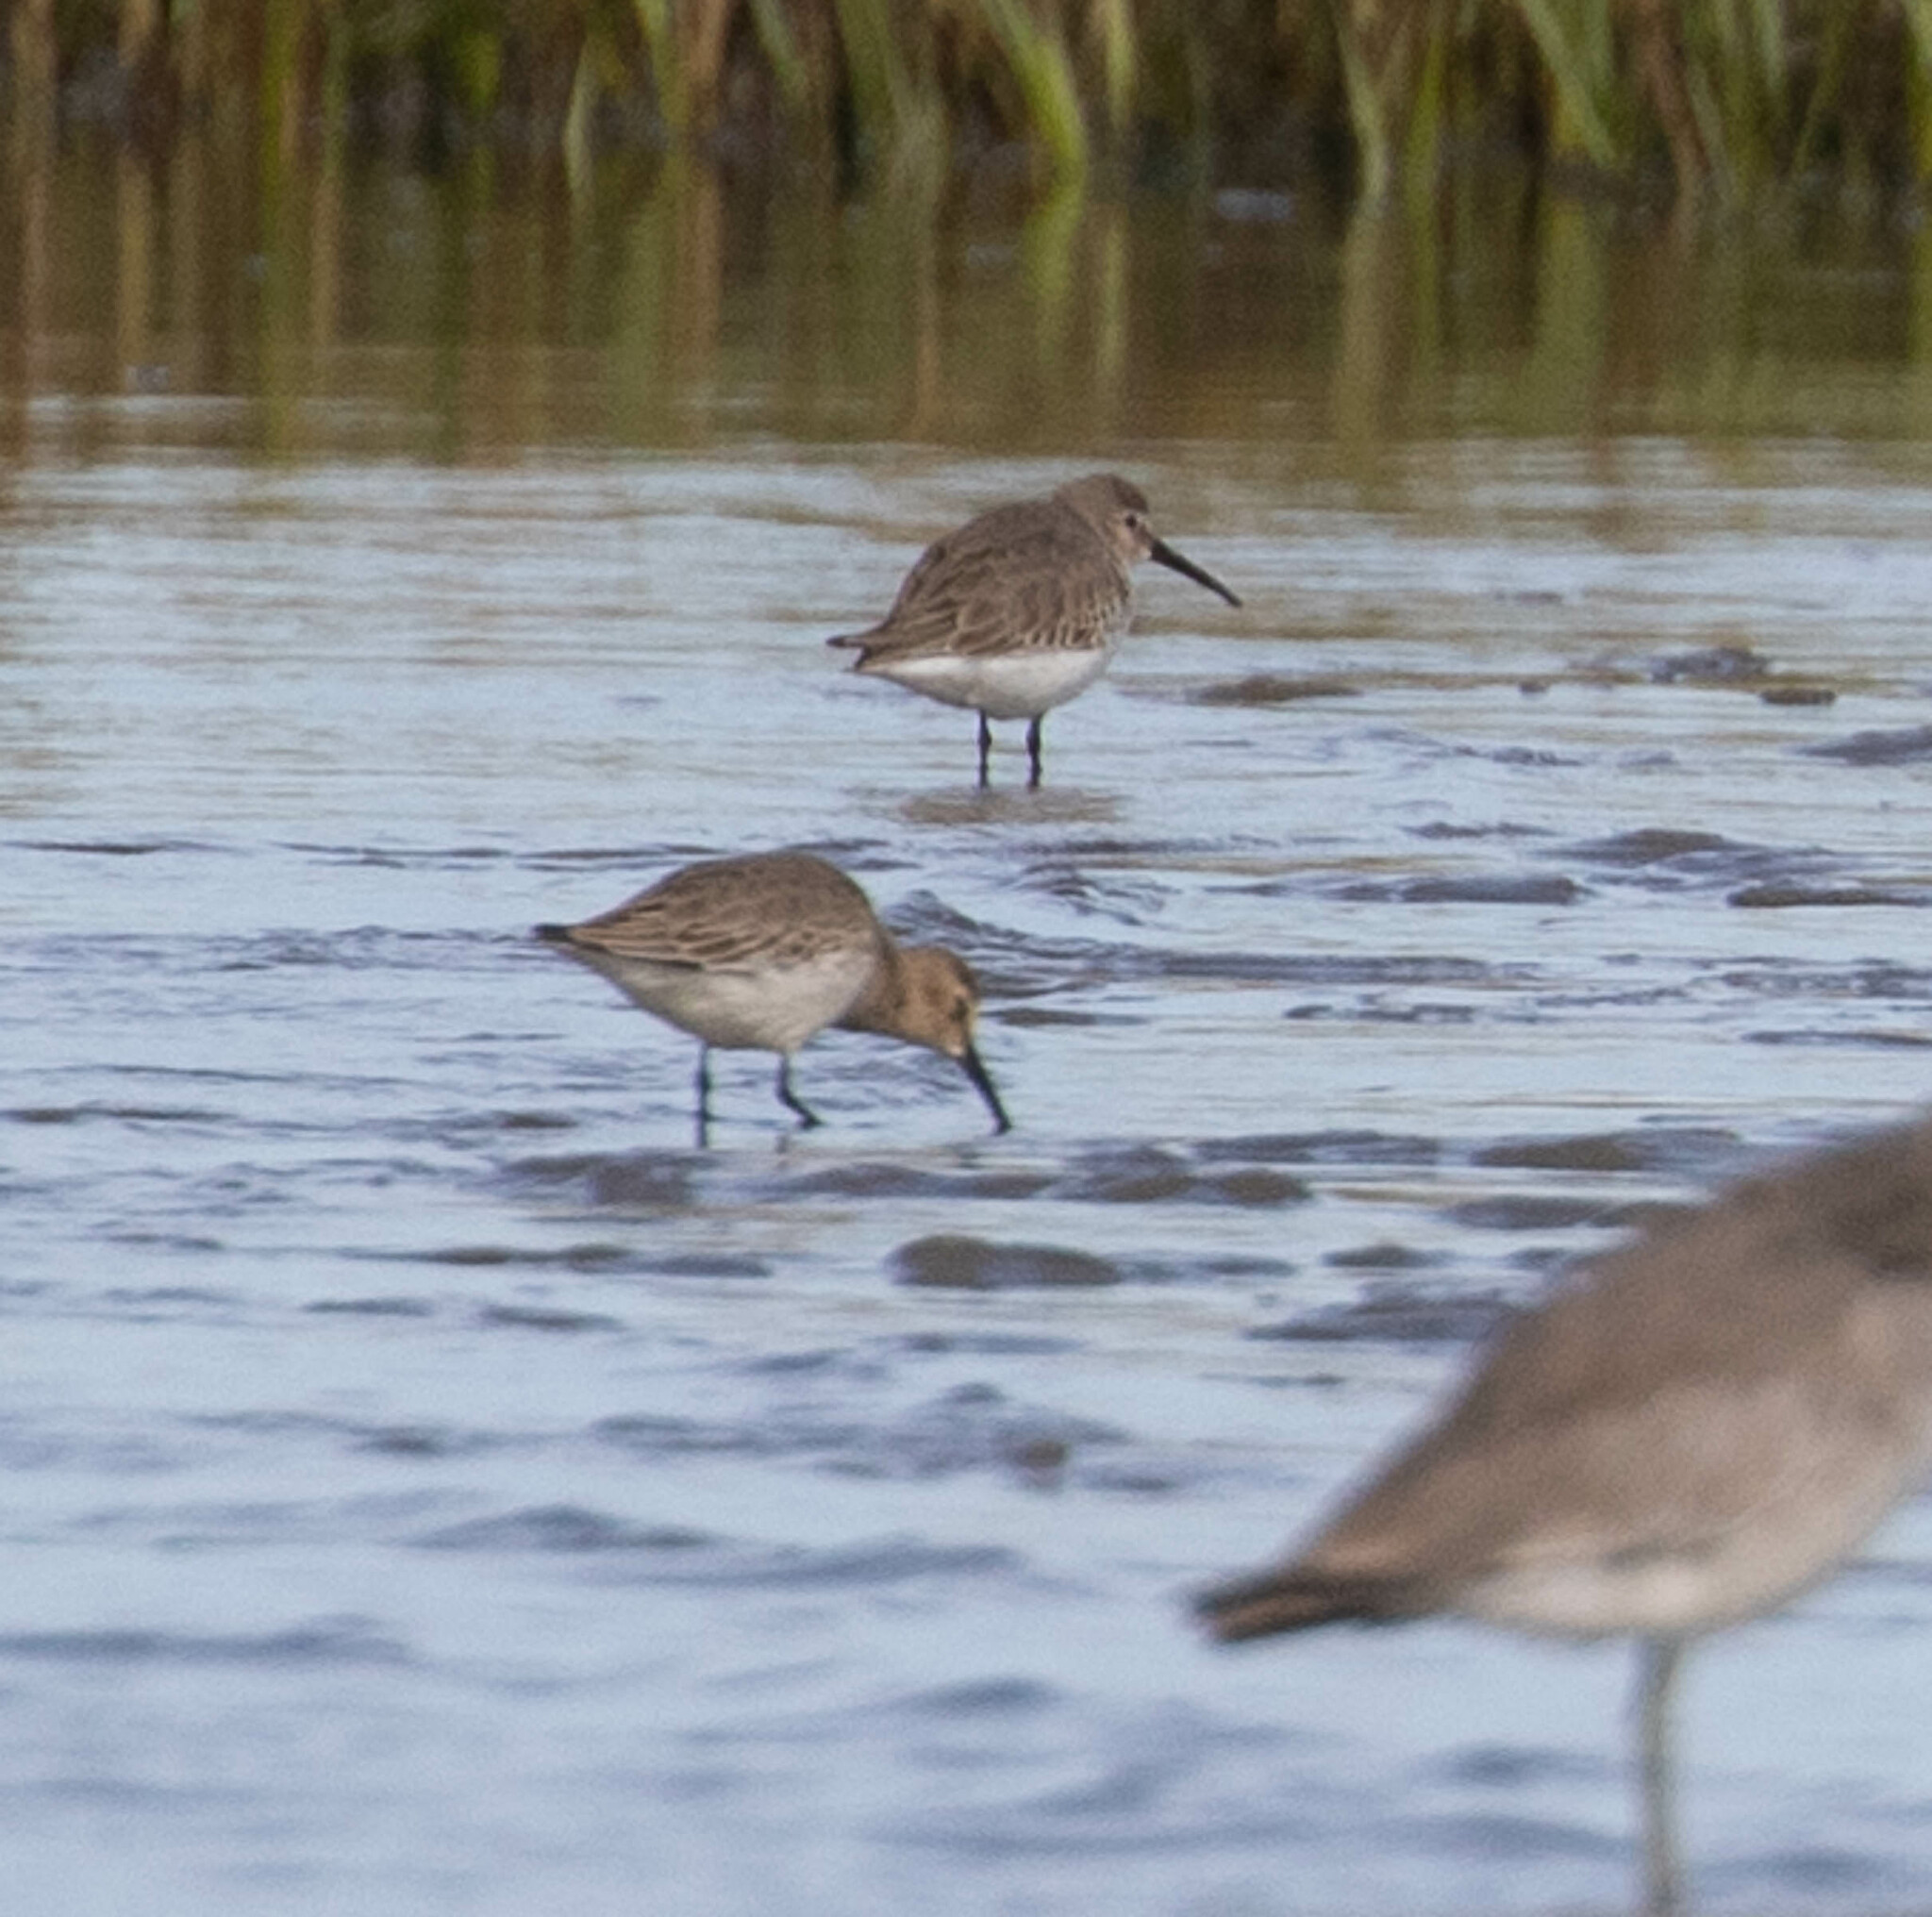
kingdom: Animalia
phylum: Chordata
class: Aves
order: Charadriiformes
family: Scolopacidae
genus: Calidris
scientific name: Calidris alpina
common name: Dunlin
